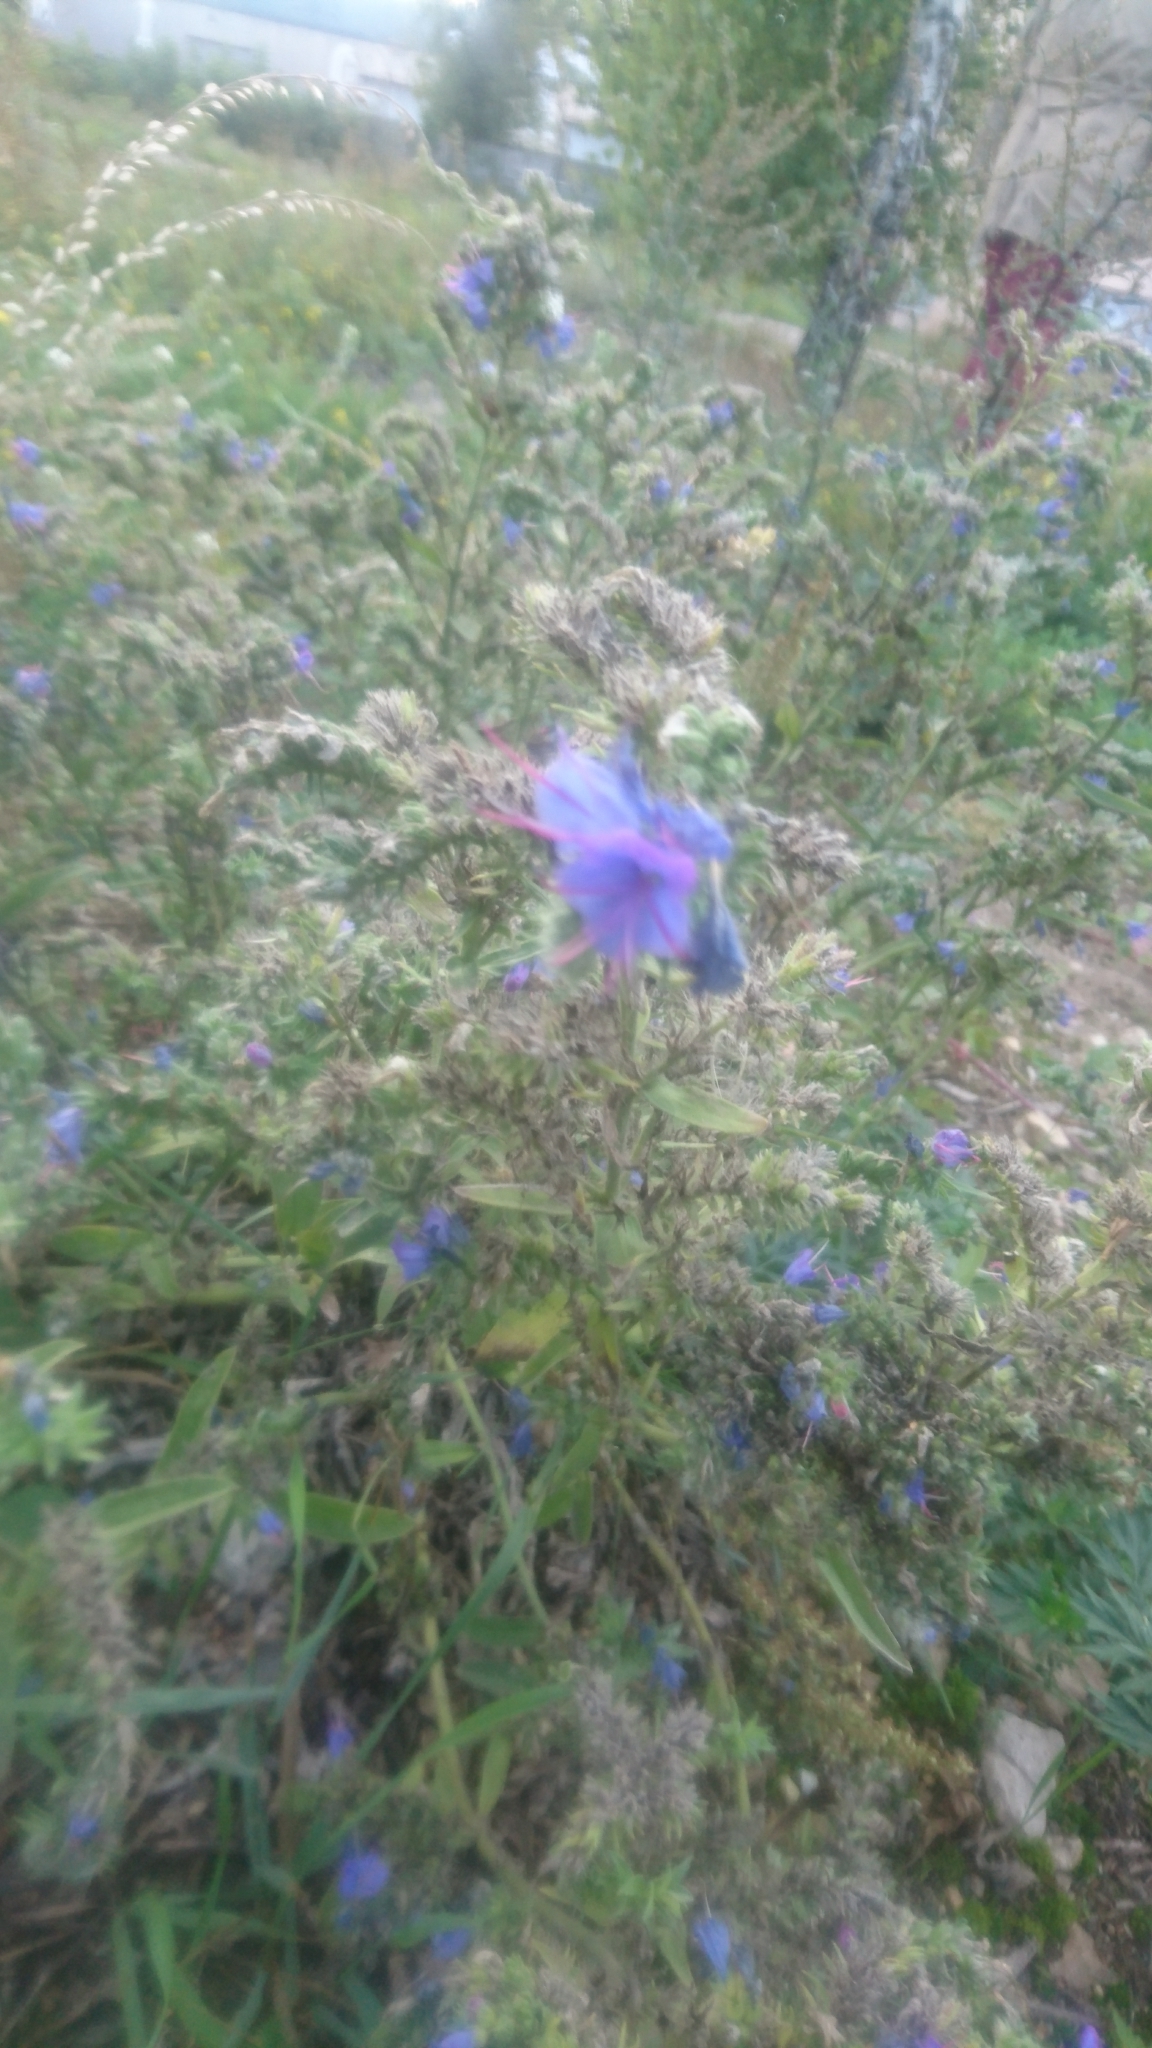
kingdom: Plantae
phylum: Tracheophyta
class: Magnoliopsida
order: Boraginales
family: Boraginaceae
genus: Echium
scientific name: Echium vulgare
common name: Common viper's bugloss
